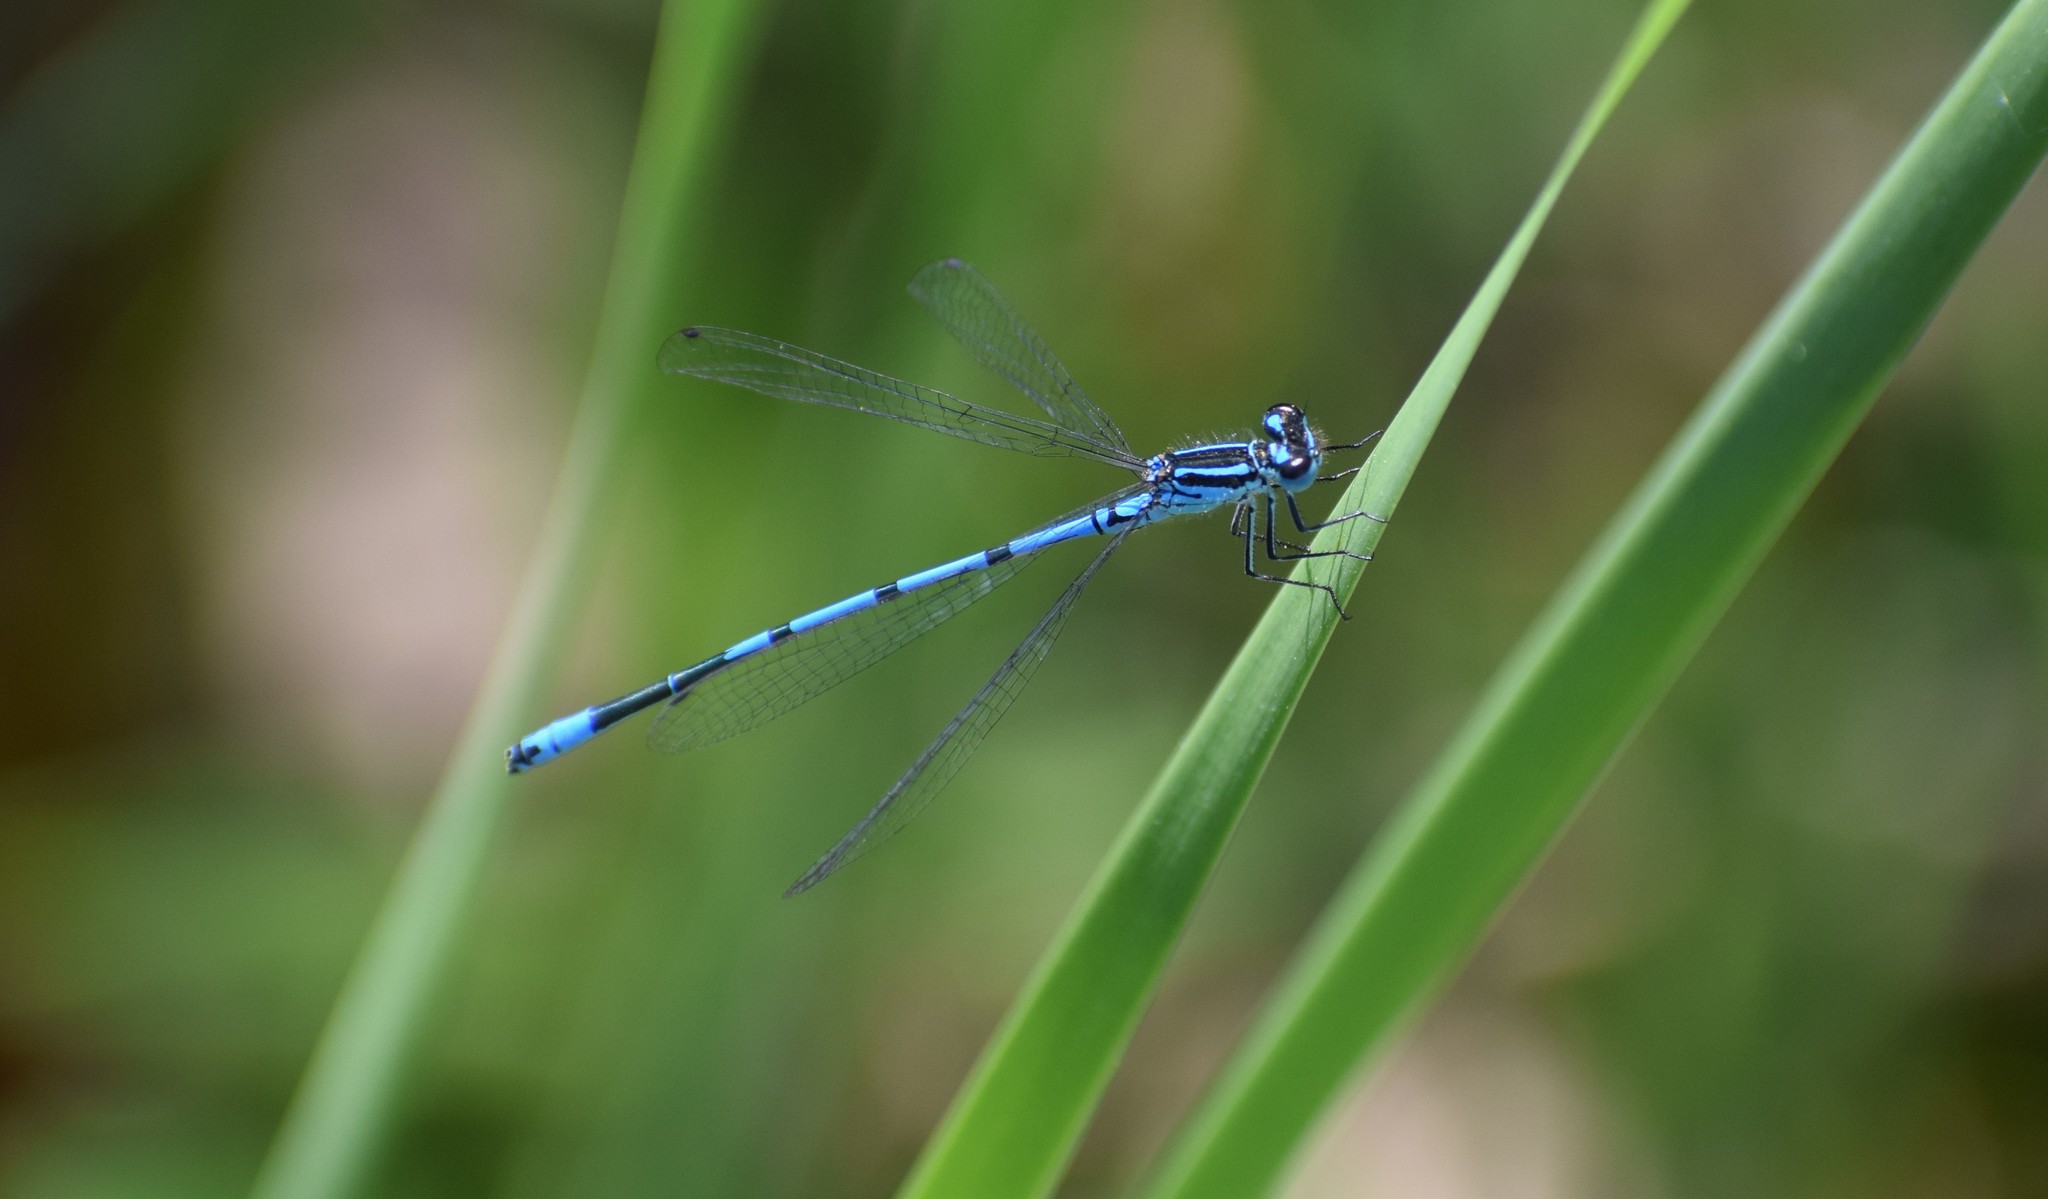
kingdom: Animalia
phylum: Arthropoda
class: Insecta
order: Odonata
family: Coenagrionidae
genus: Coenagrion
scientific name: Coenagrion puella
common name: Azure damselfly
